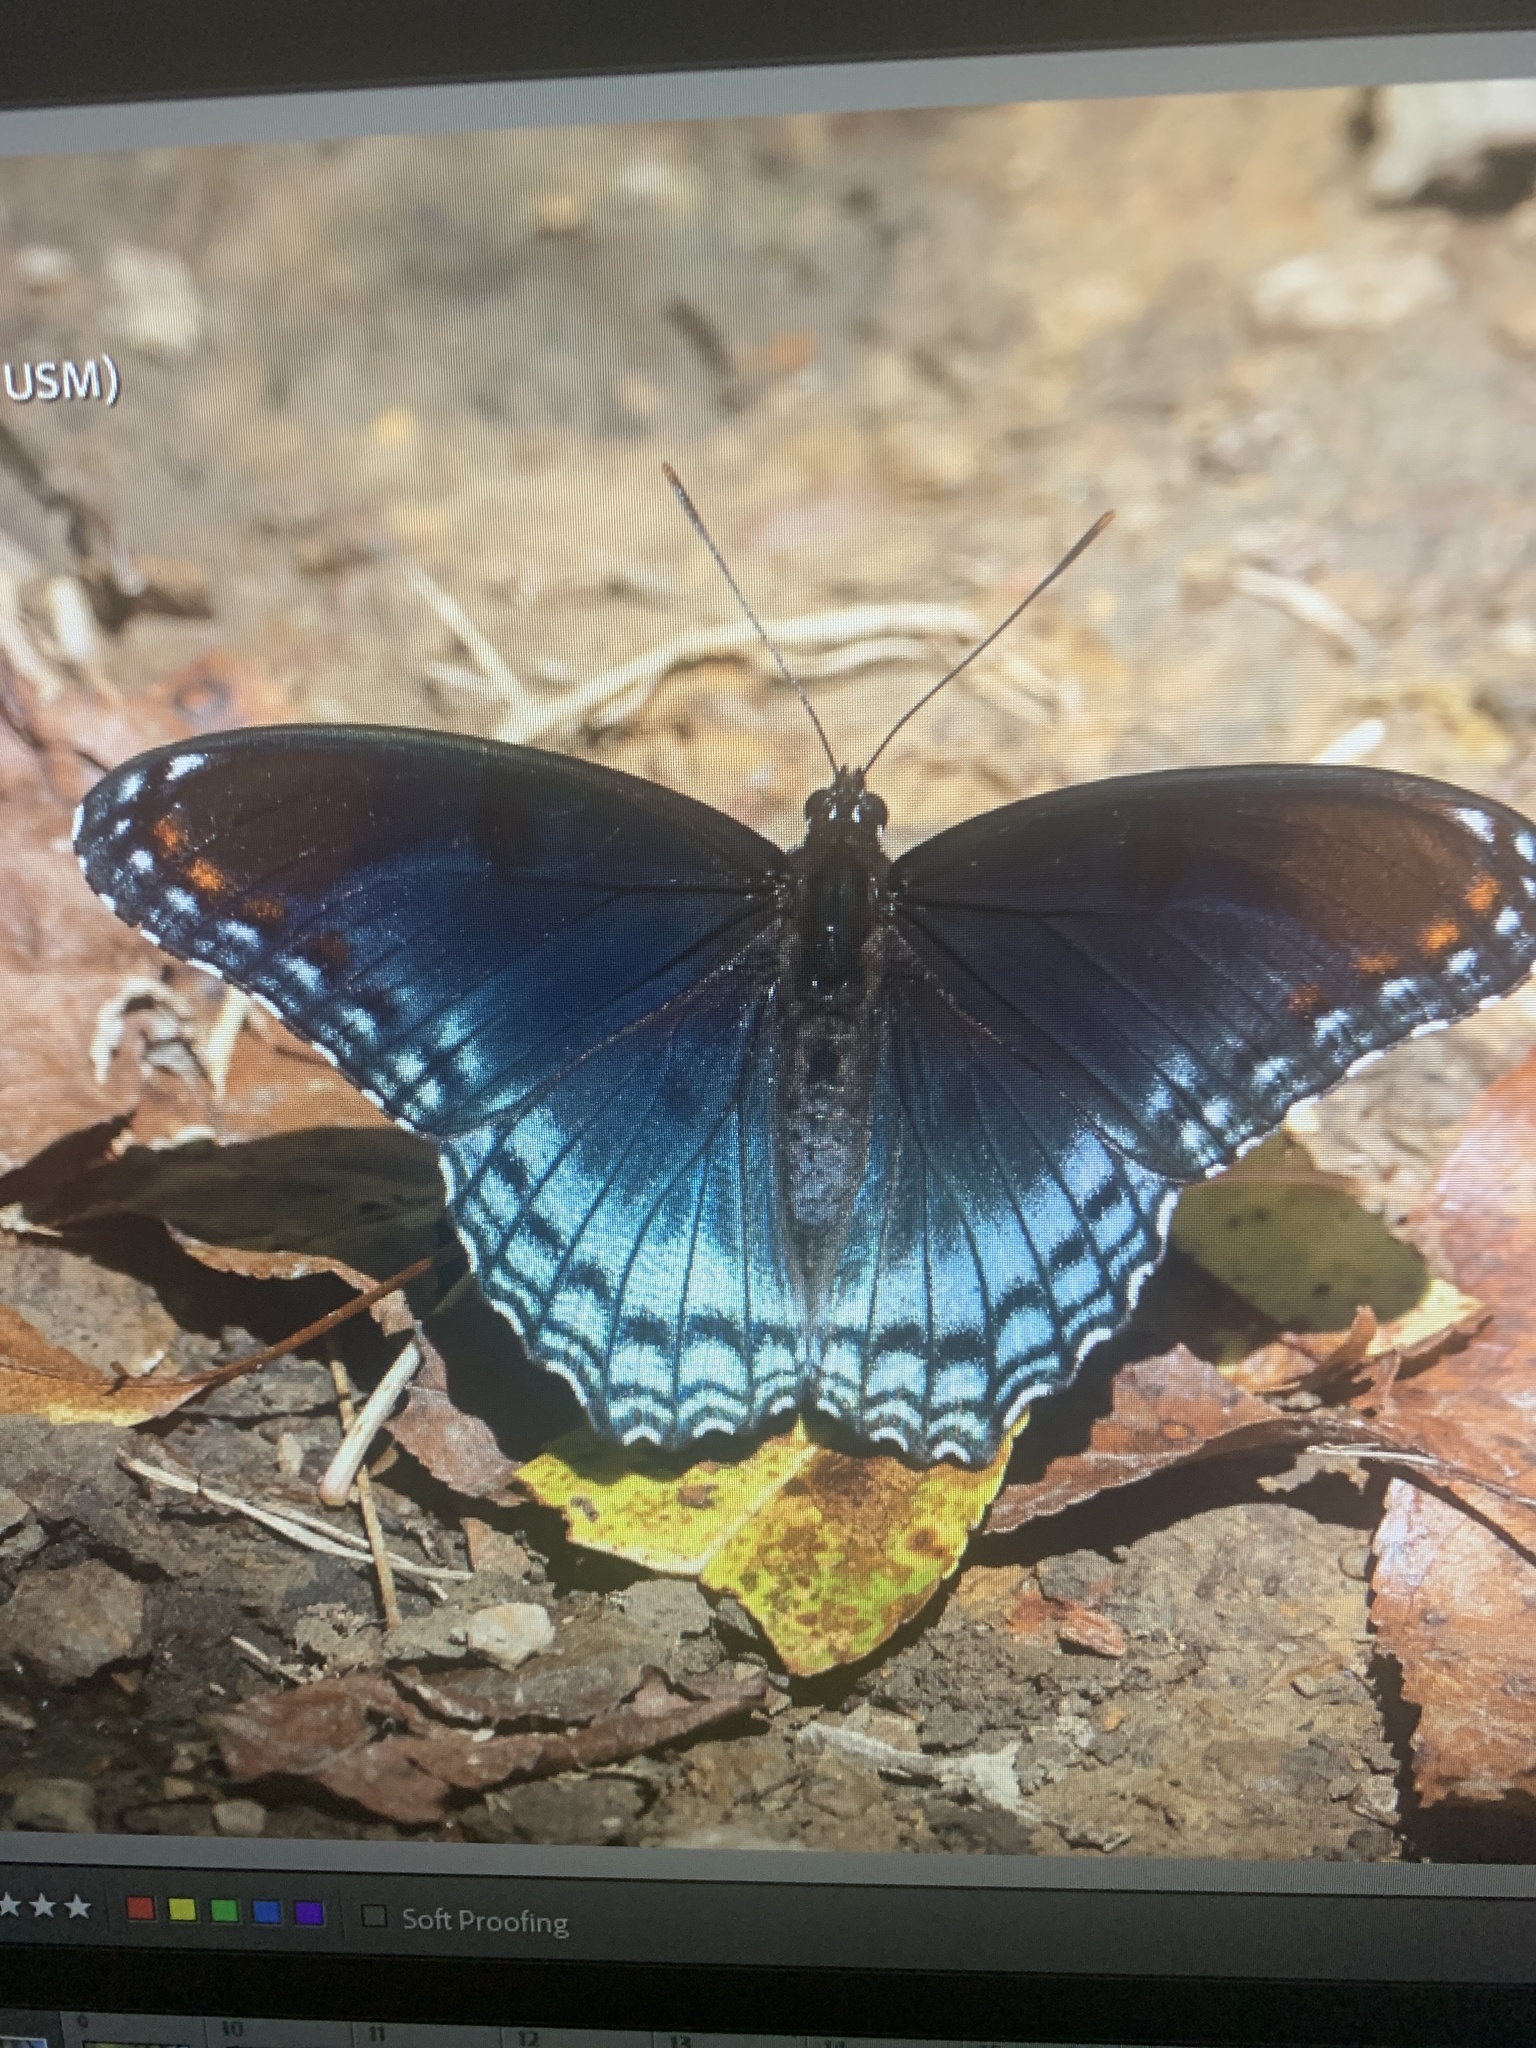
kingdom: Animalia
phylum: Arthropoda
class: Insecta
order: Lepidoptera
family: Nymphalidae
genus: Limenitis
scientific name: Limenitis arthemis
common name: Red-spotted admiral
